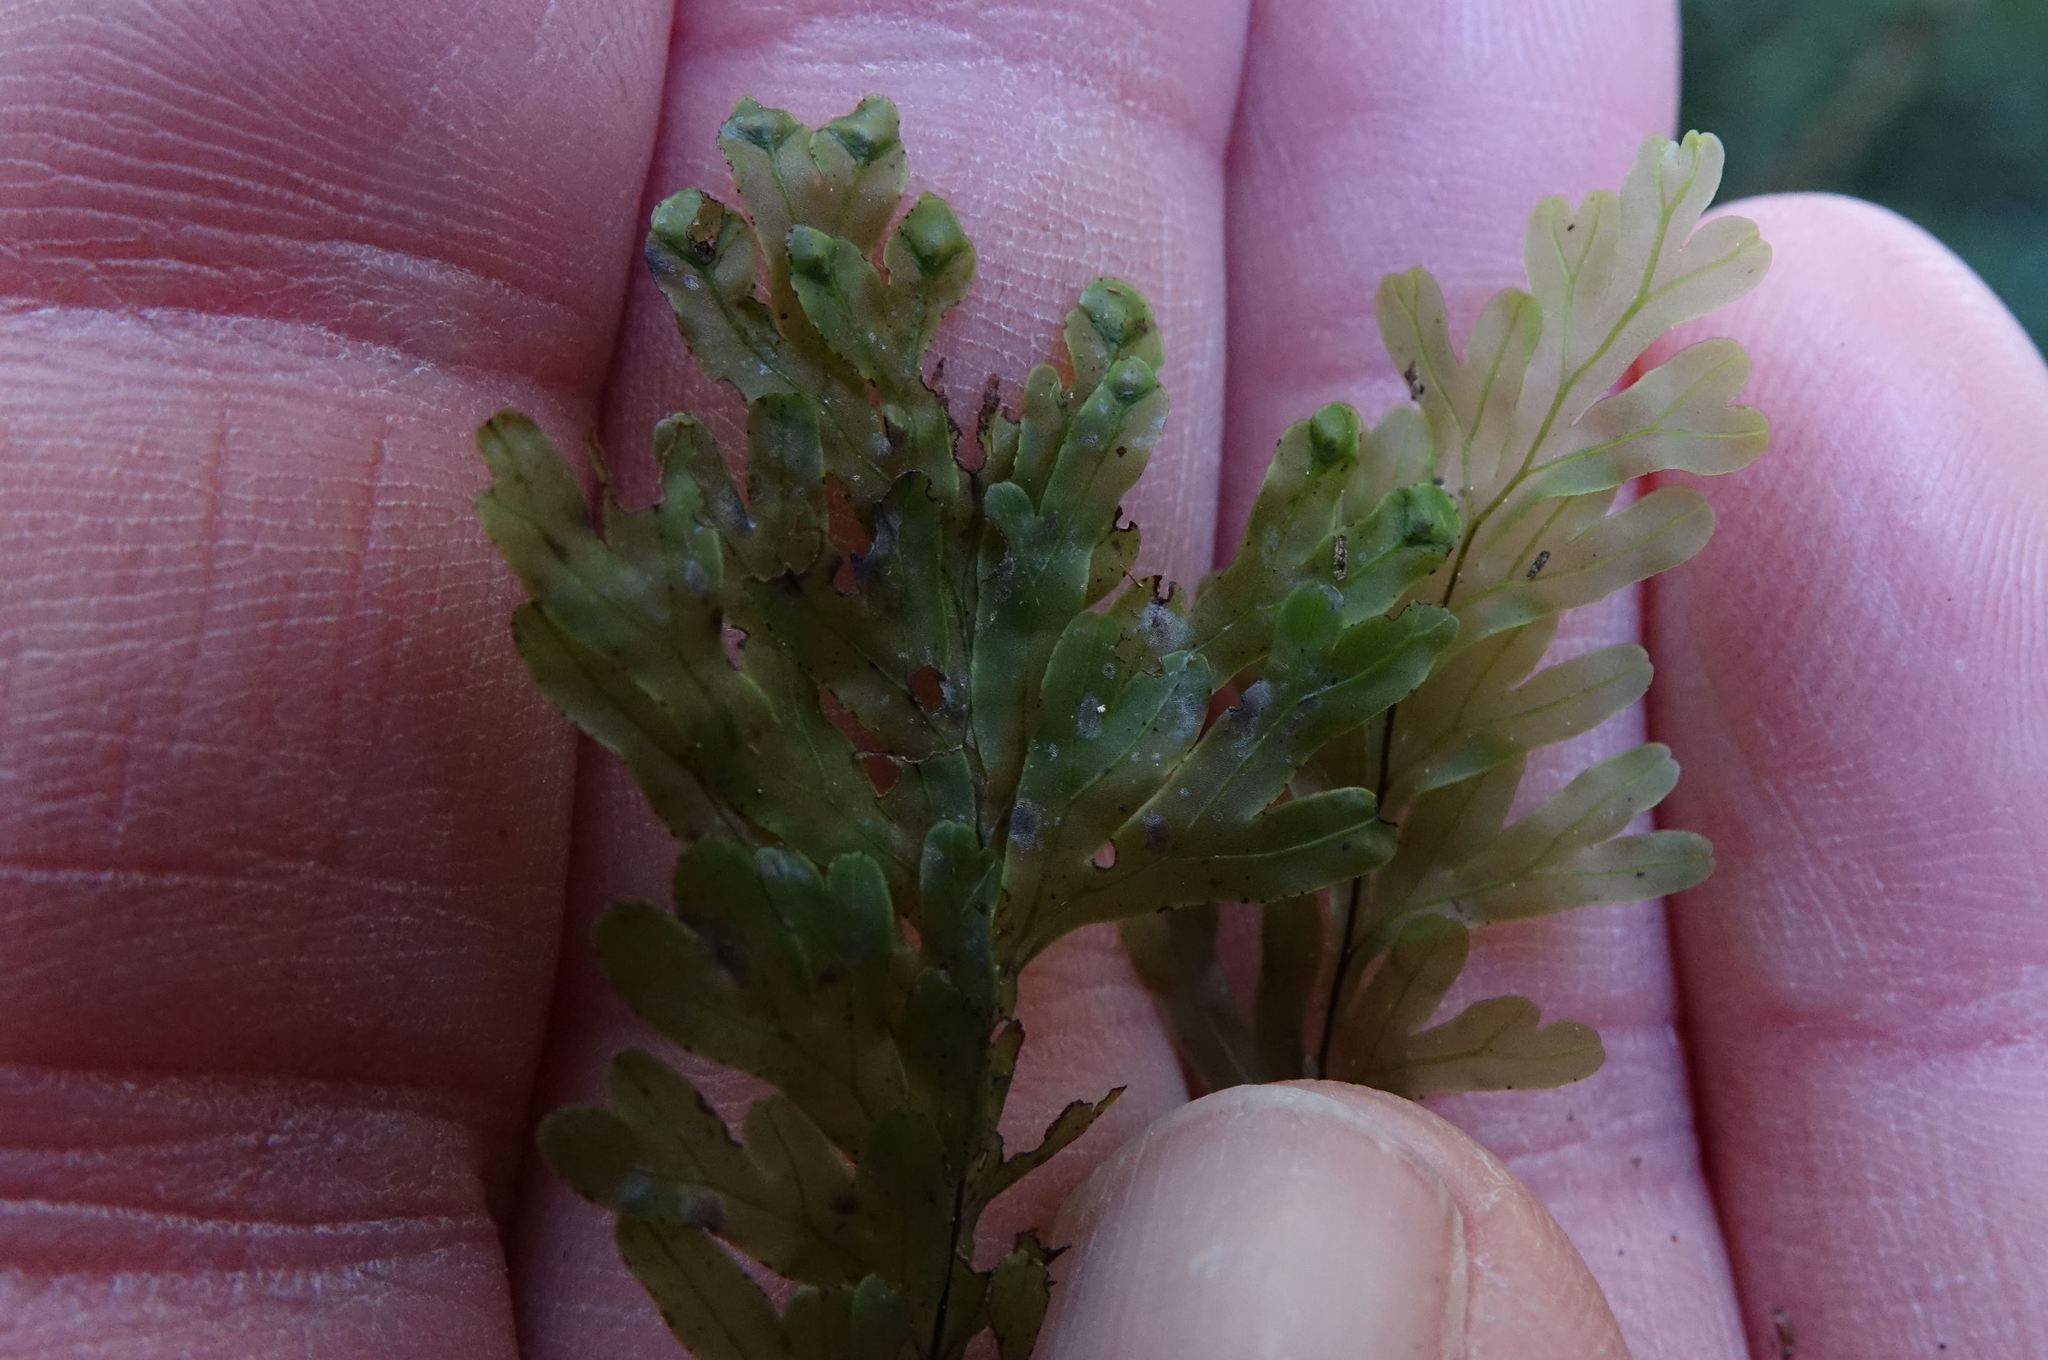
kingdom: Plantae
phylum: Tracheophyta
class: Polypodiopsida
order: Hymenophyllales
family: Hymenophyllaceae
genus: Hymenophyllum
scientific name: Hymenophyllum rarum
